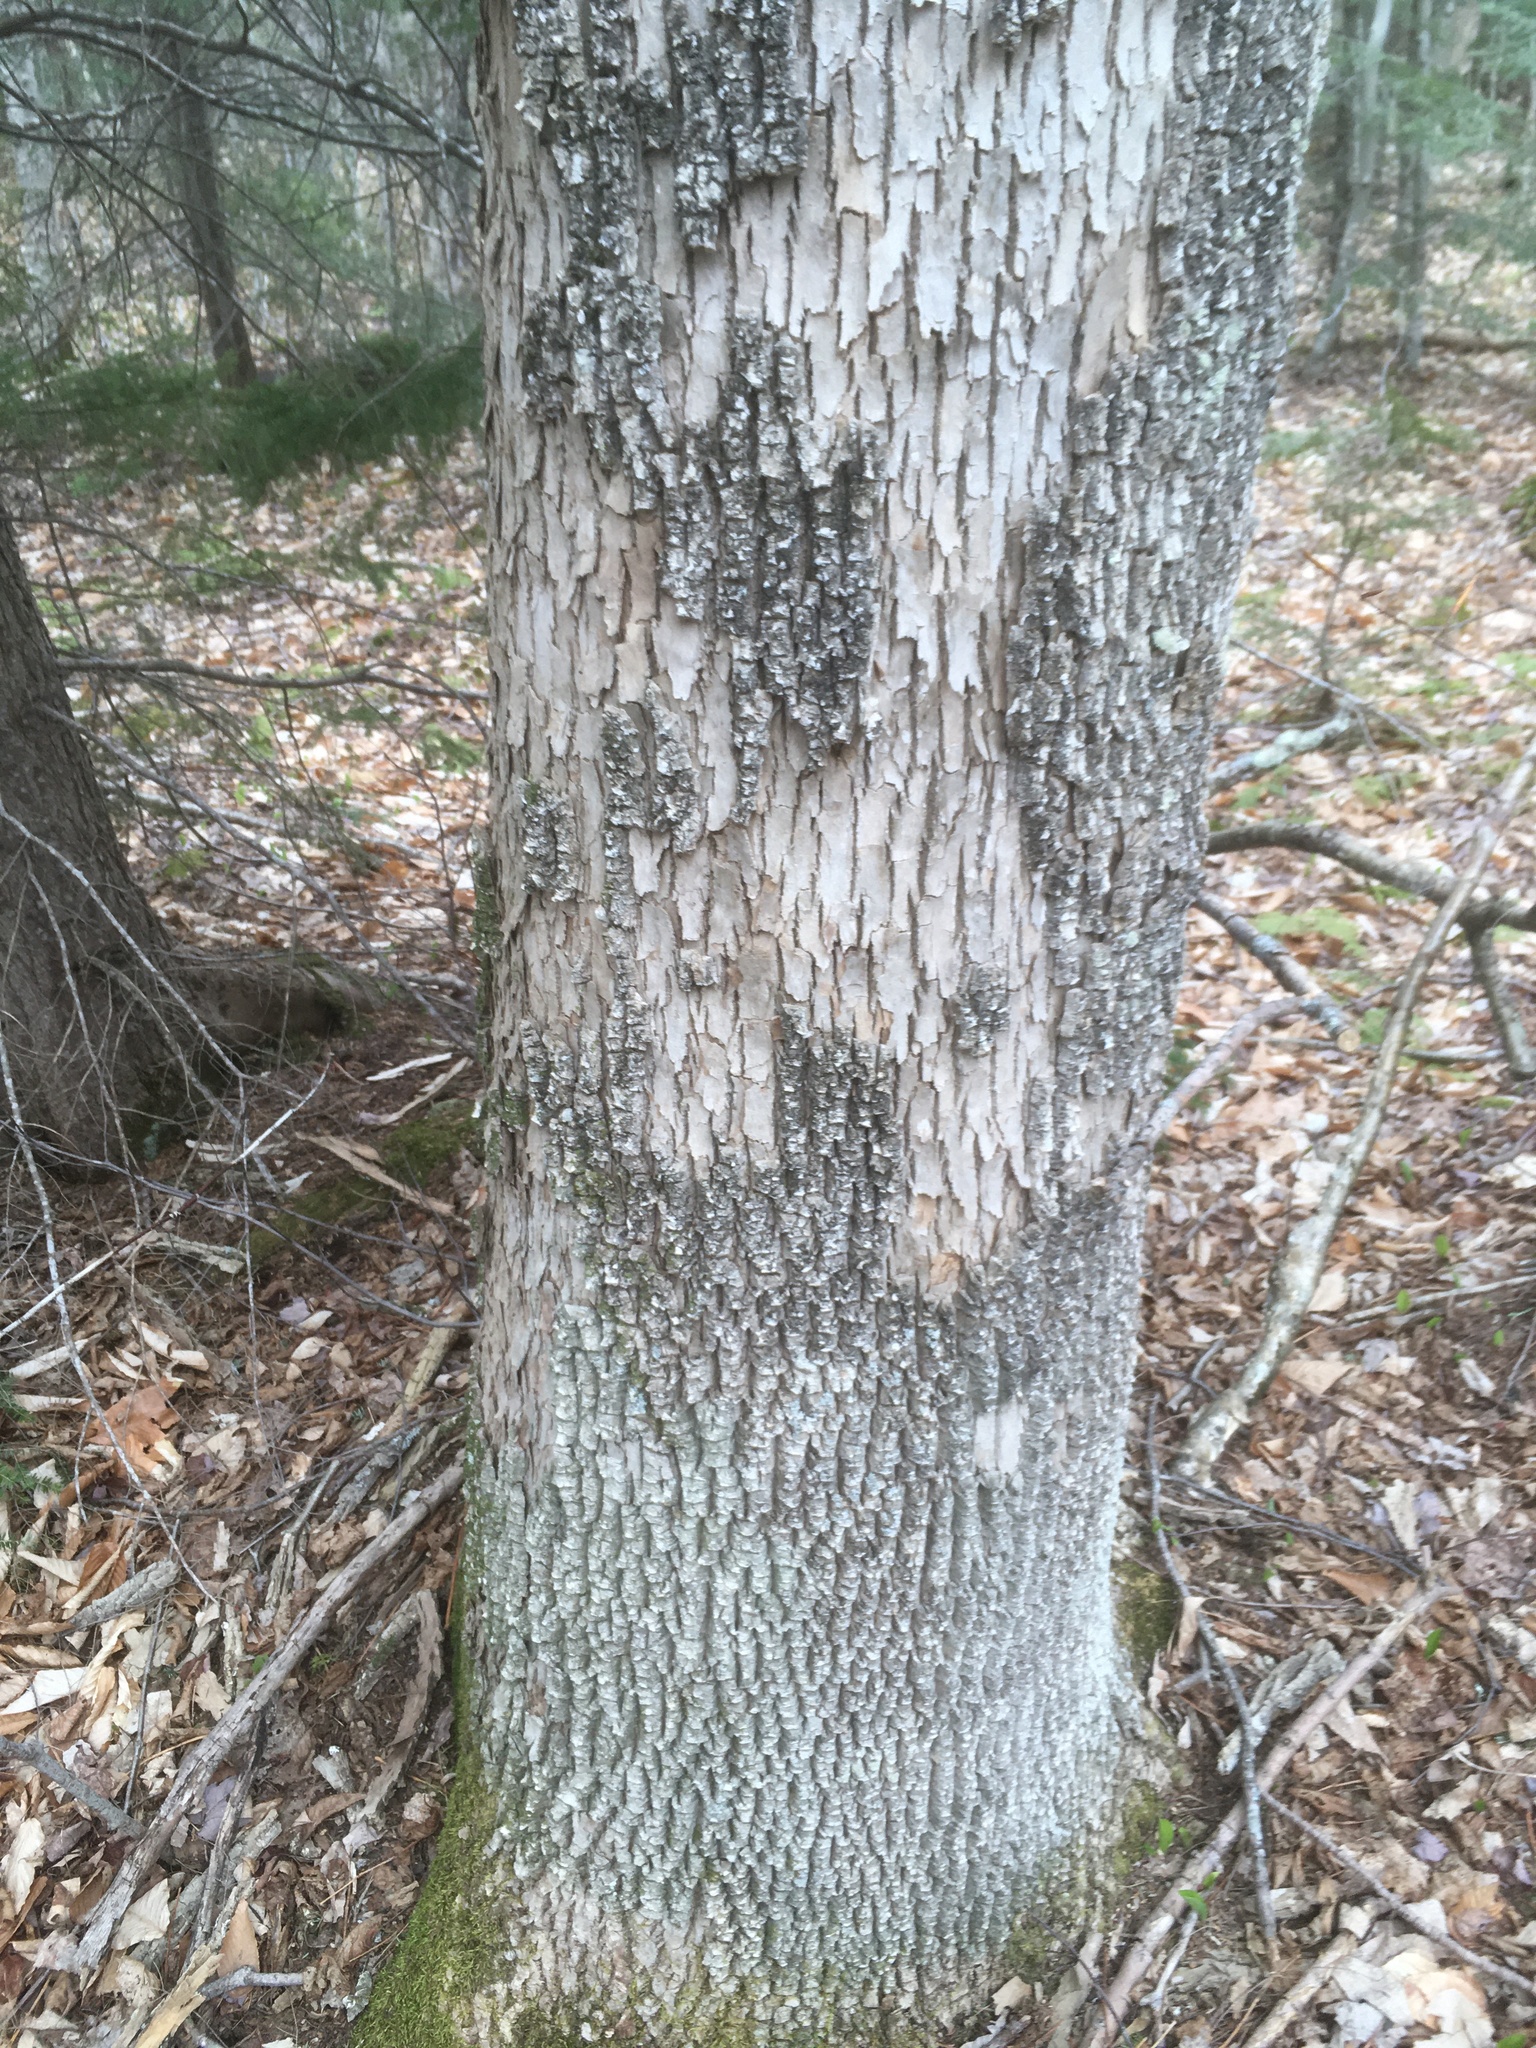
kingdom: Plantae
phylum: Tracheophyta
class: Magnoliopsida
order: Lamiales
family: Oleaceae
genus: Fraxinus
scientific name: Fraxinus americana
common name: White ash
